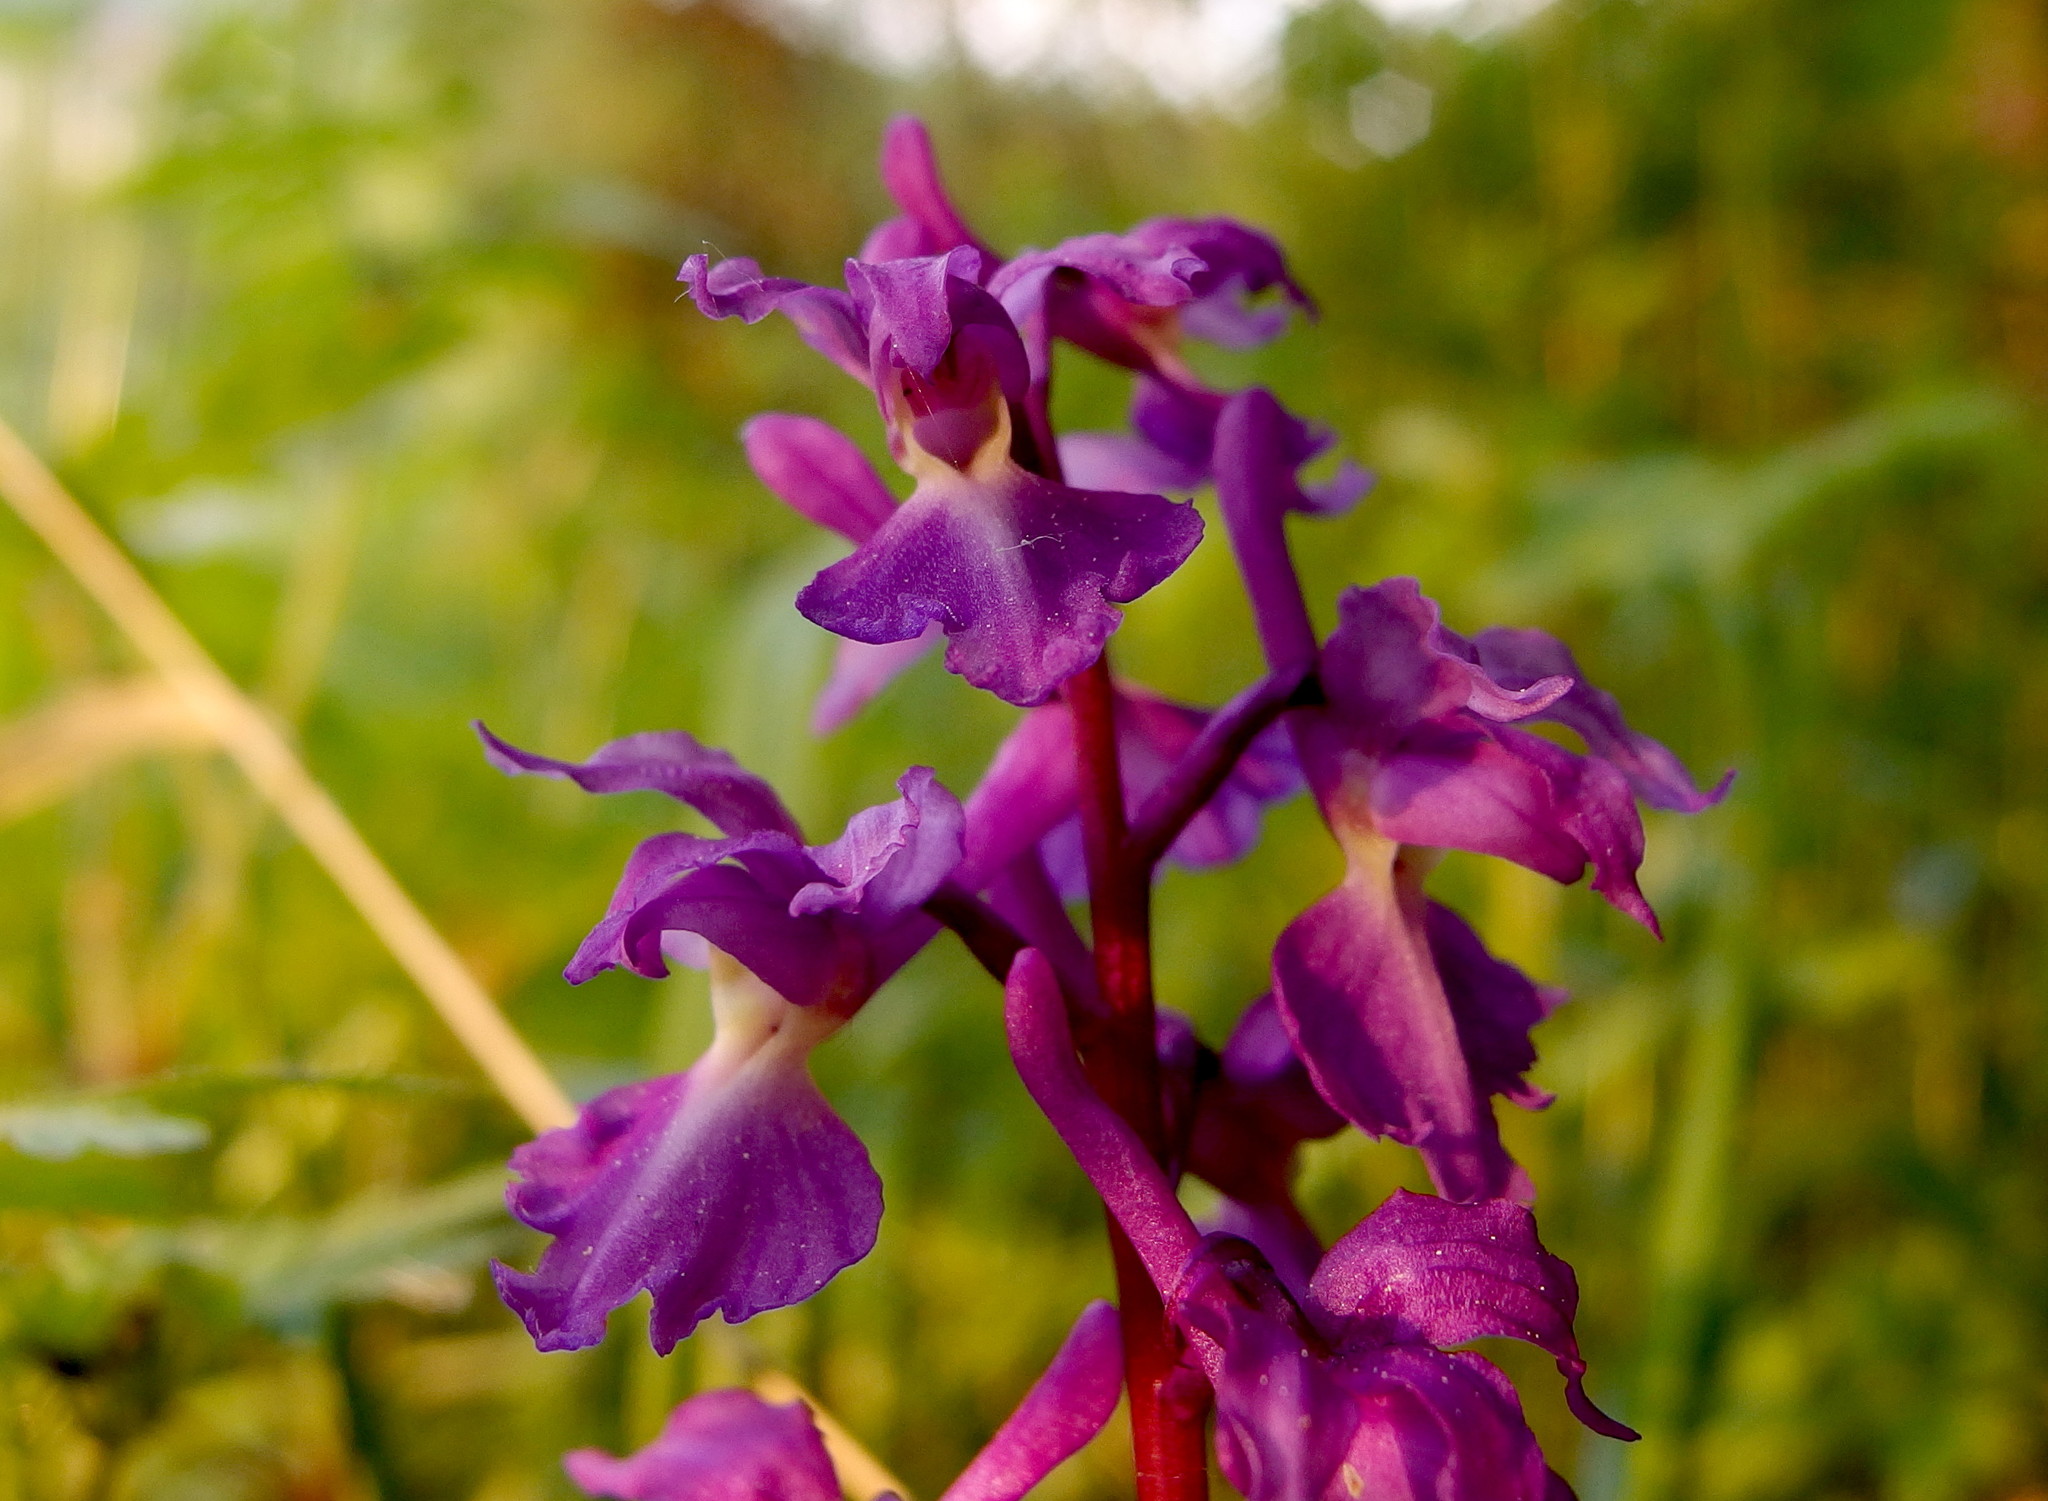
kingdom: Plantae
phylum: Tracheophyta
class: Liliopsida
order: Asparagales
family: Orchidaceae
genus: Orchis
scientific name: Orchis mascula
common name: Early-purple orchid
